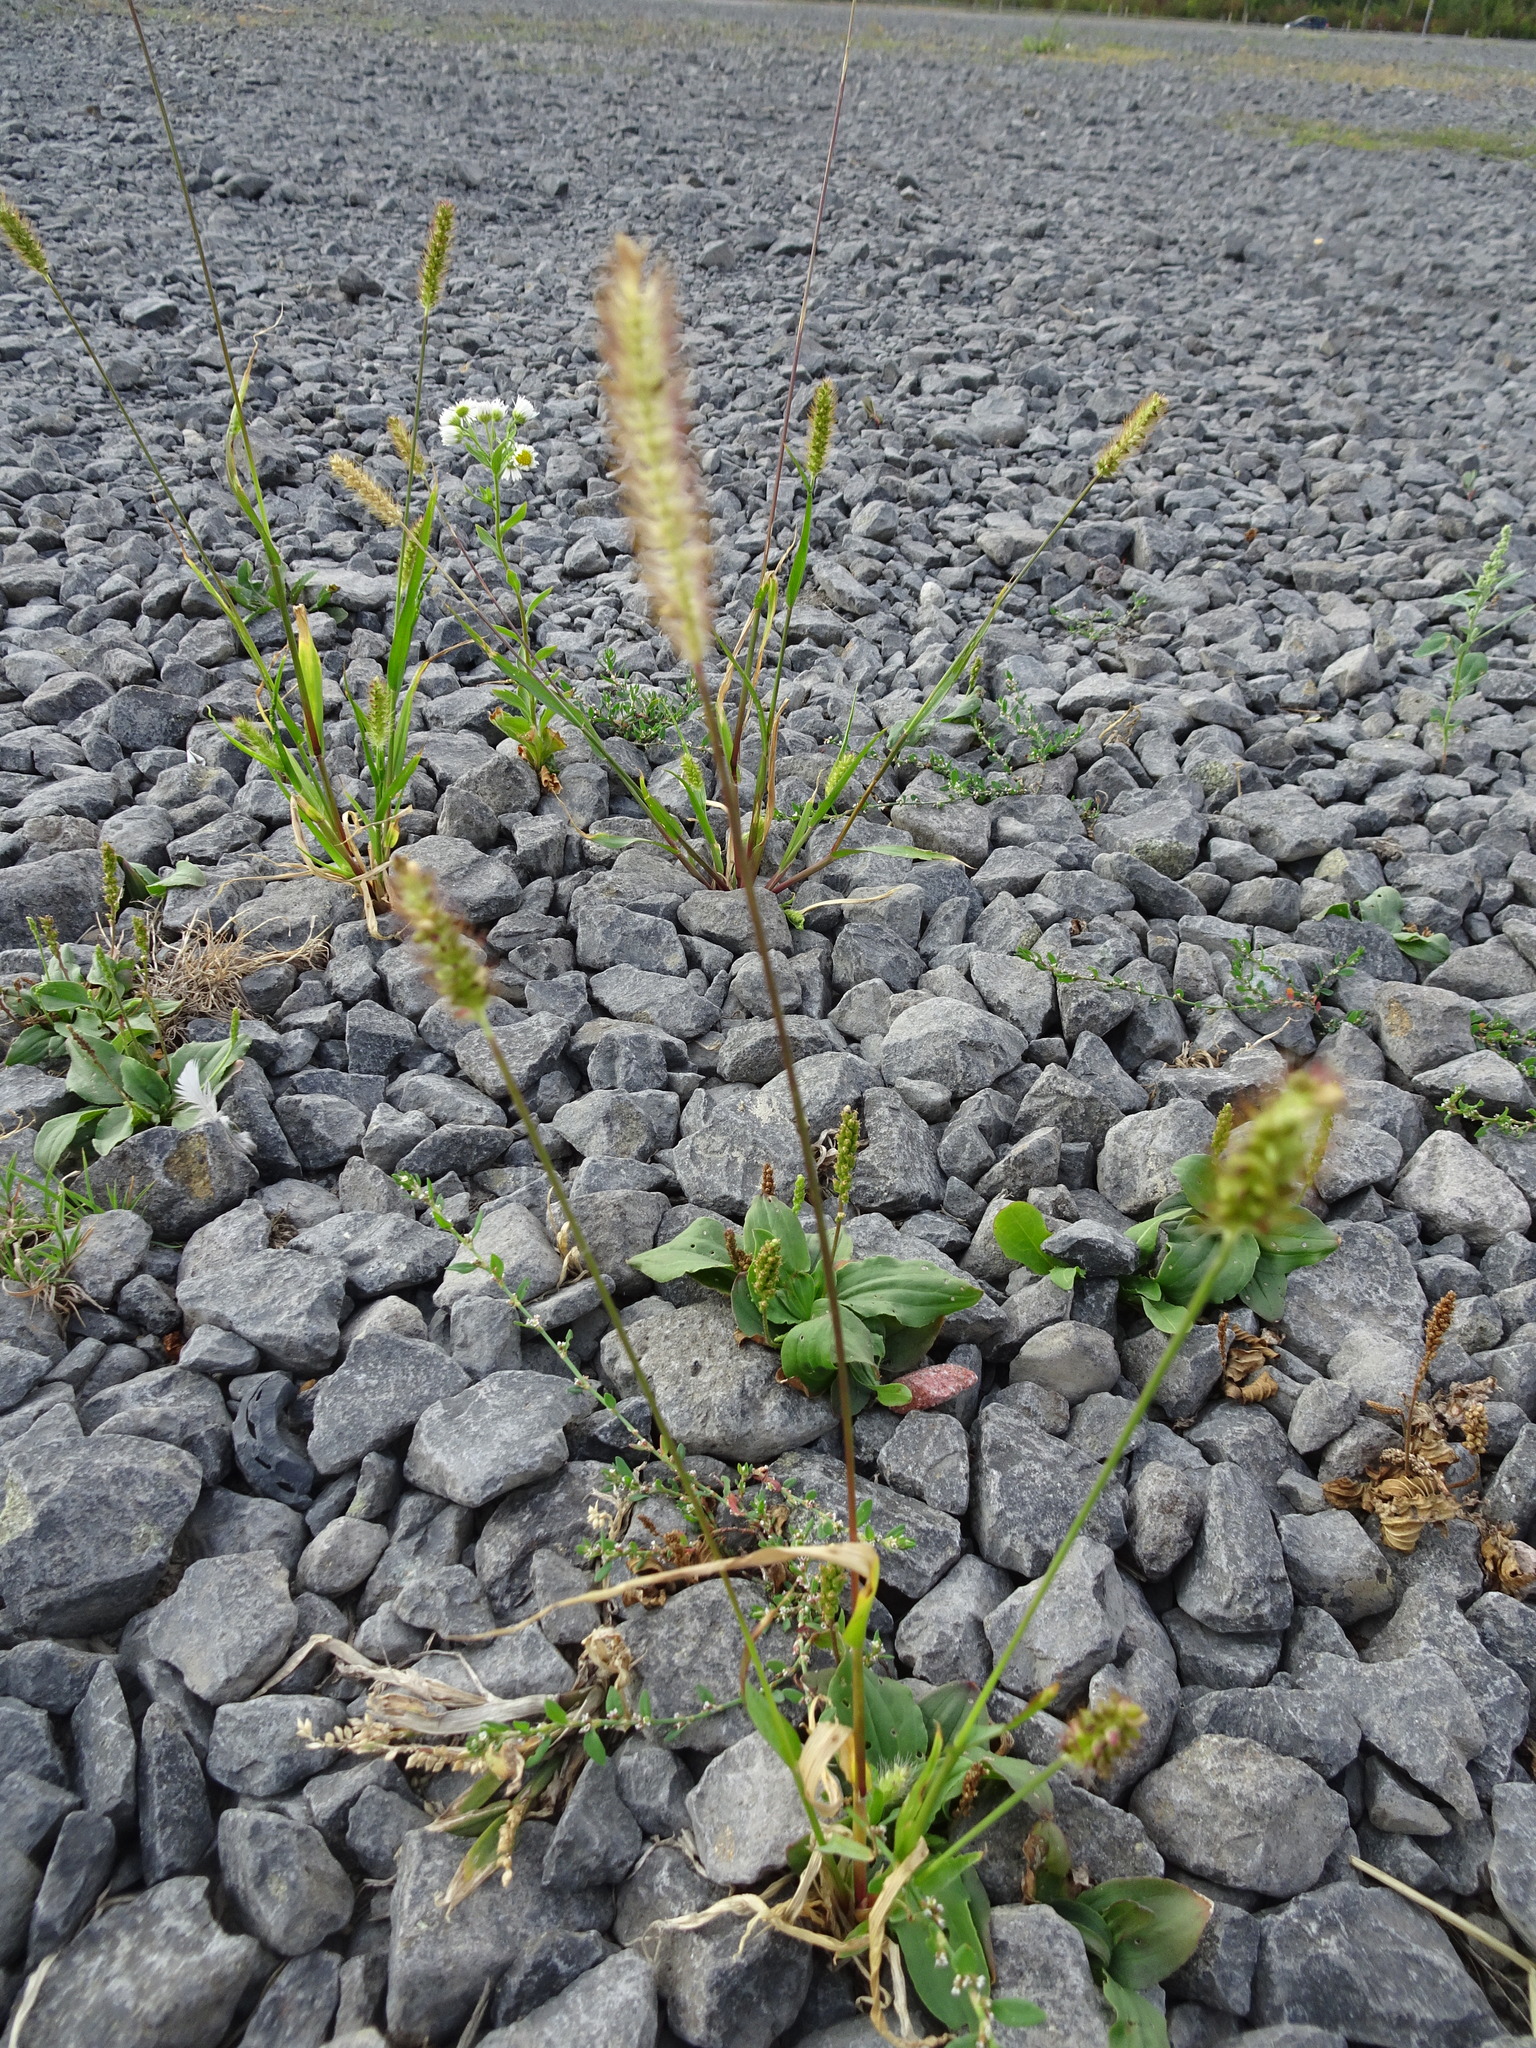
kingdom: Plantae
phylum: Tracheophyta
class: Liliopsida
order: Poales
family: Poaceae
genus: Setaria
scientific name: Setaria pumila
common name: Yellow bristle-grass
